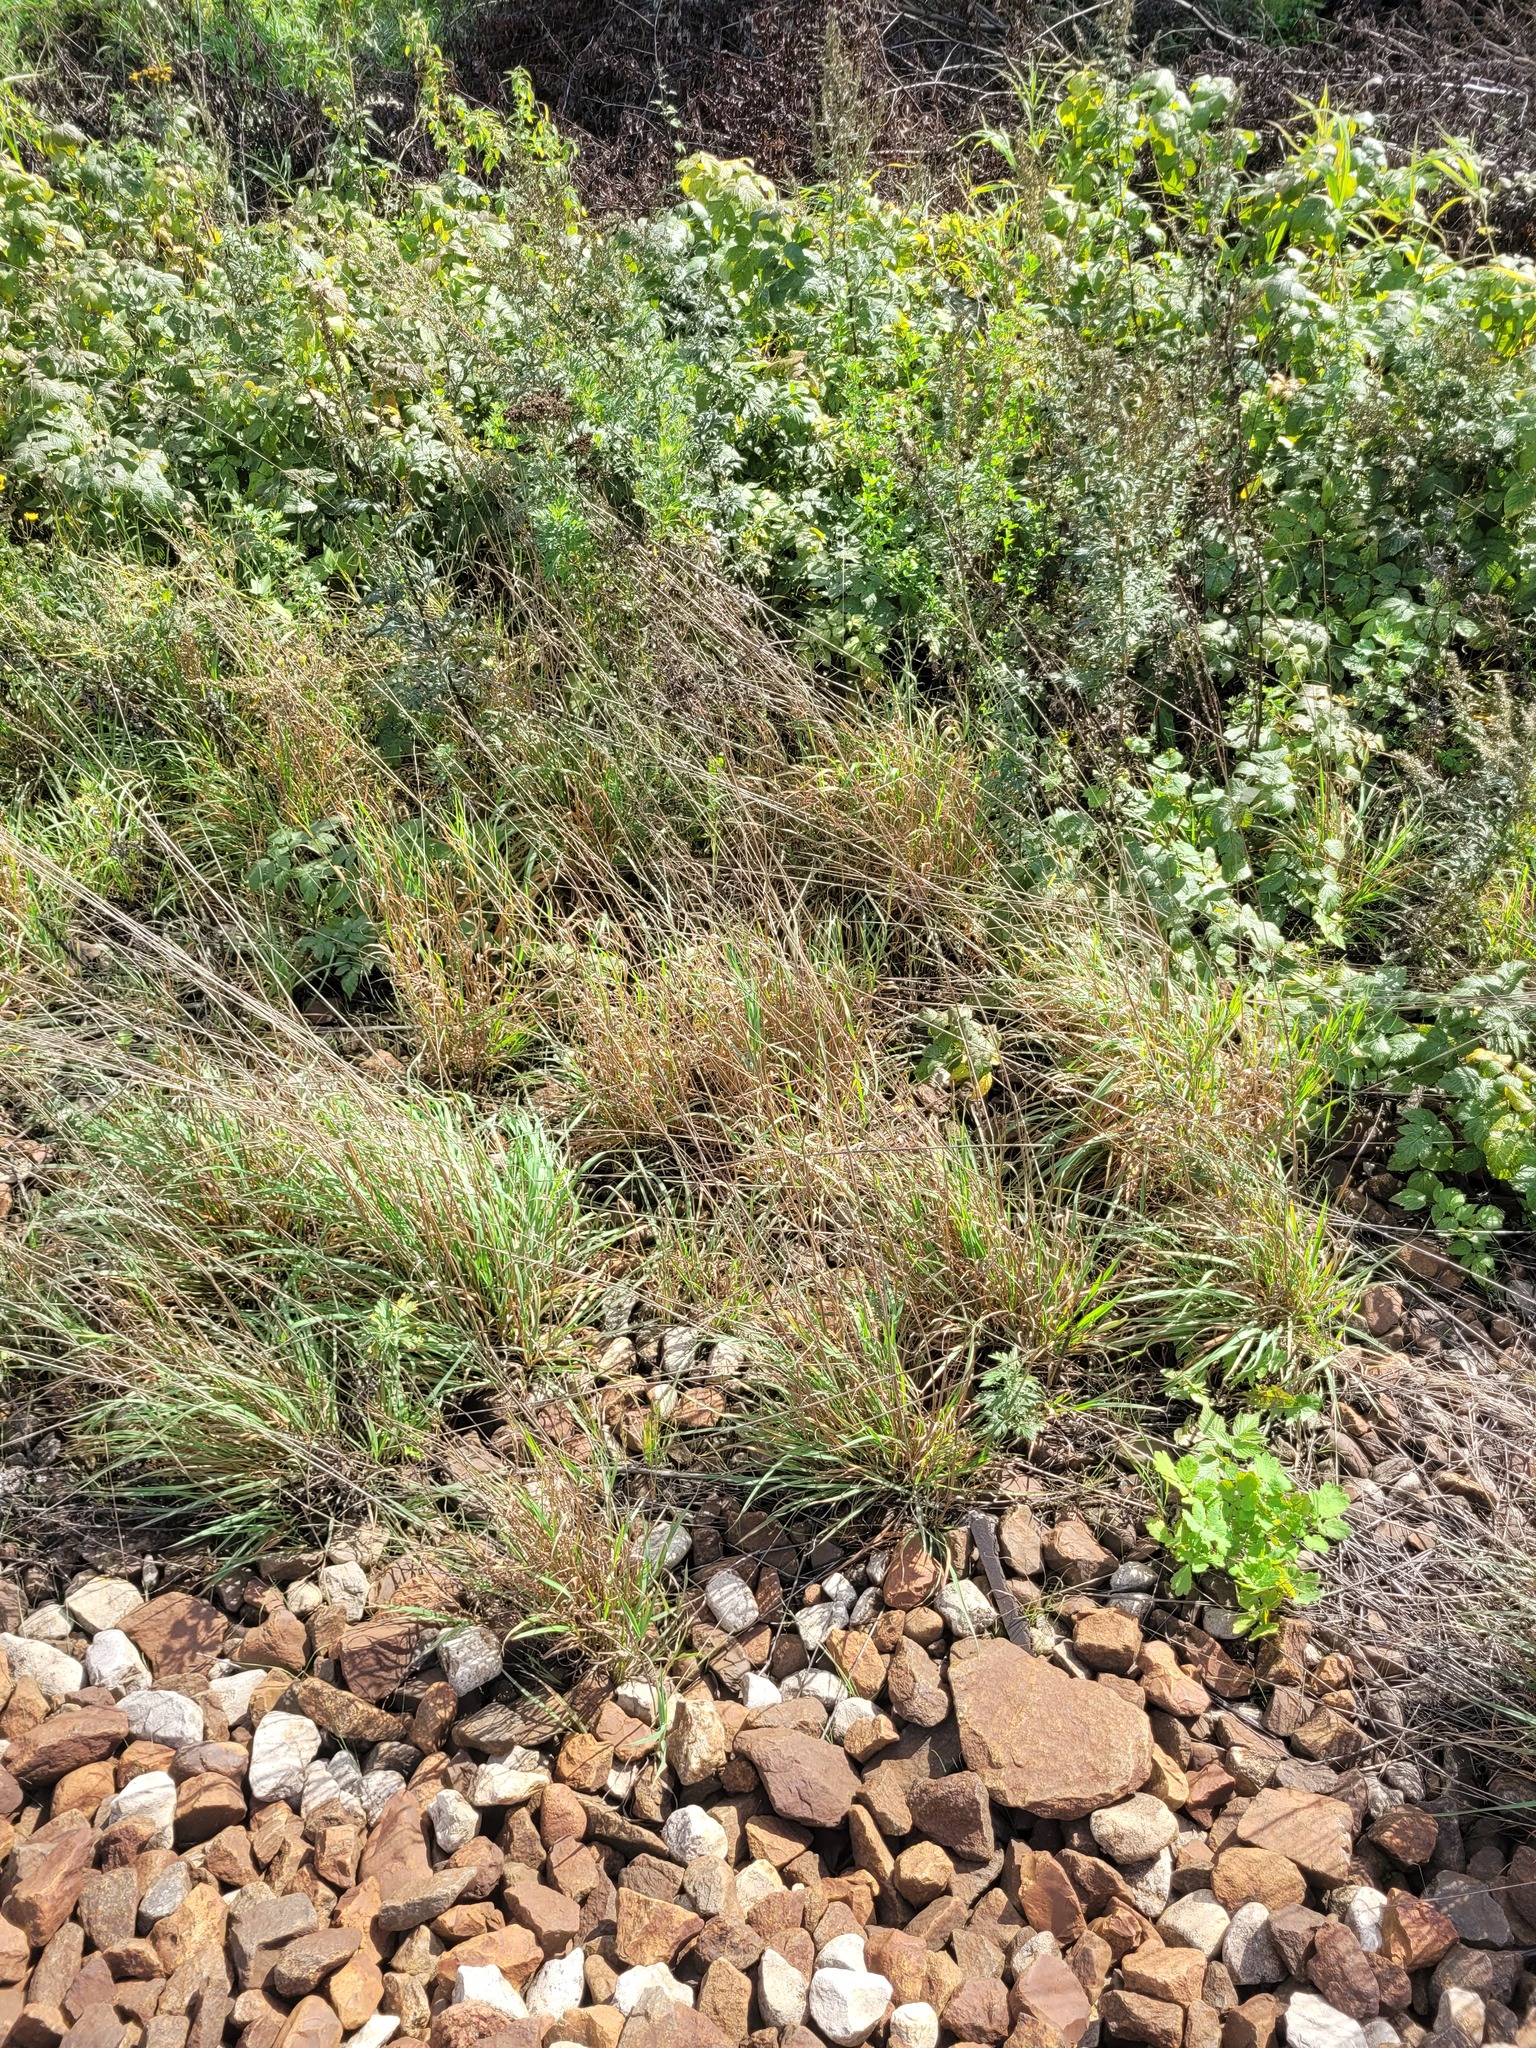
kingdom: Plantae
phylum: Tracheophyta
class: Liliopsida
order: Poales
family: Poaceae
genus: Arrhenatherum
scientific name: Arrhenatherum elatius
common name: Tall oatgrass
